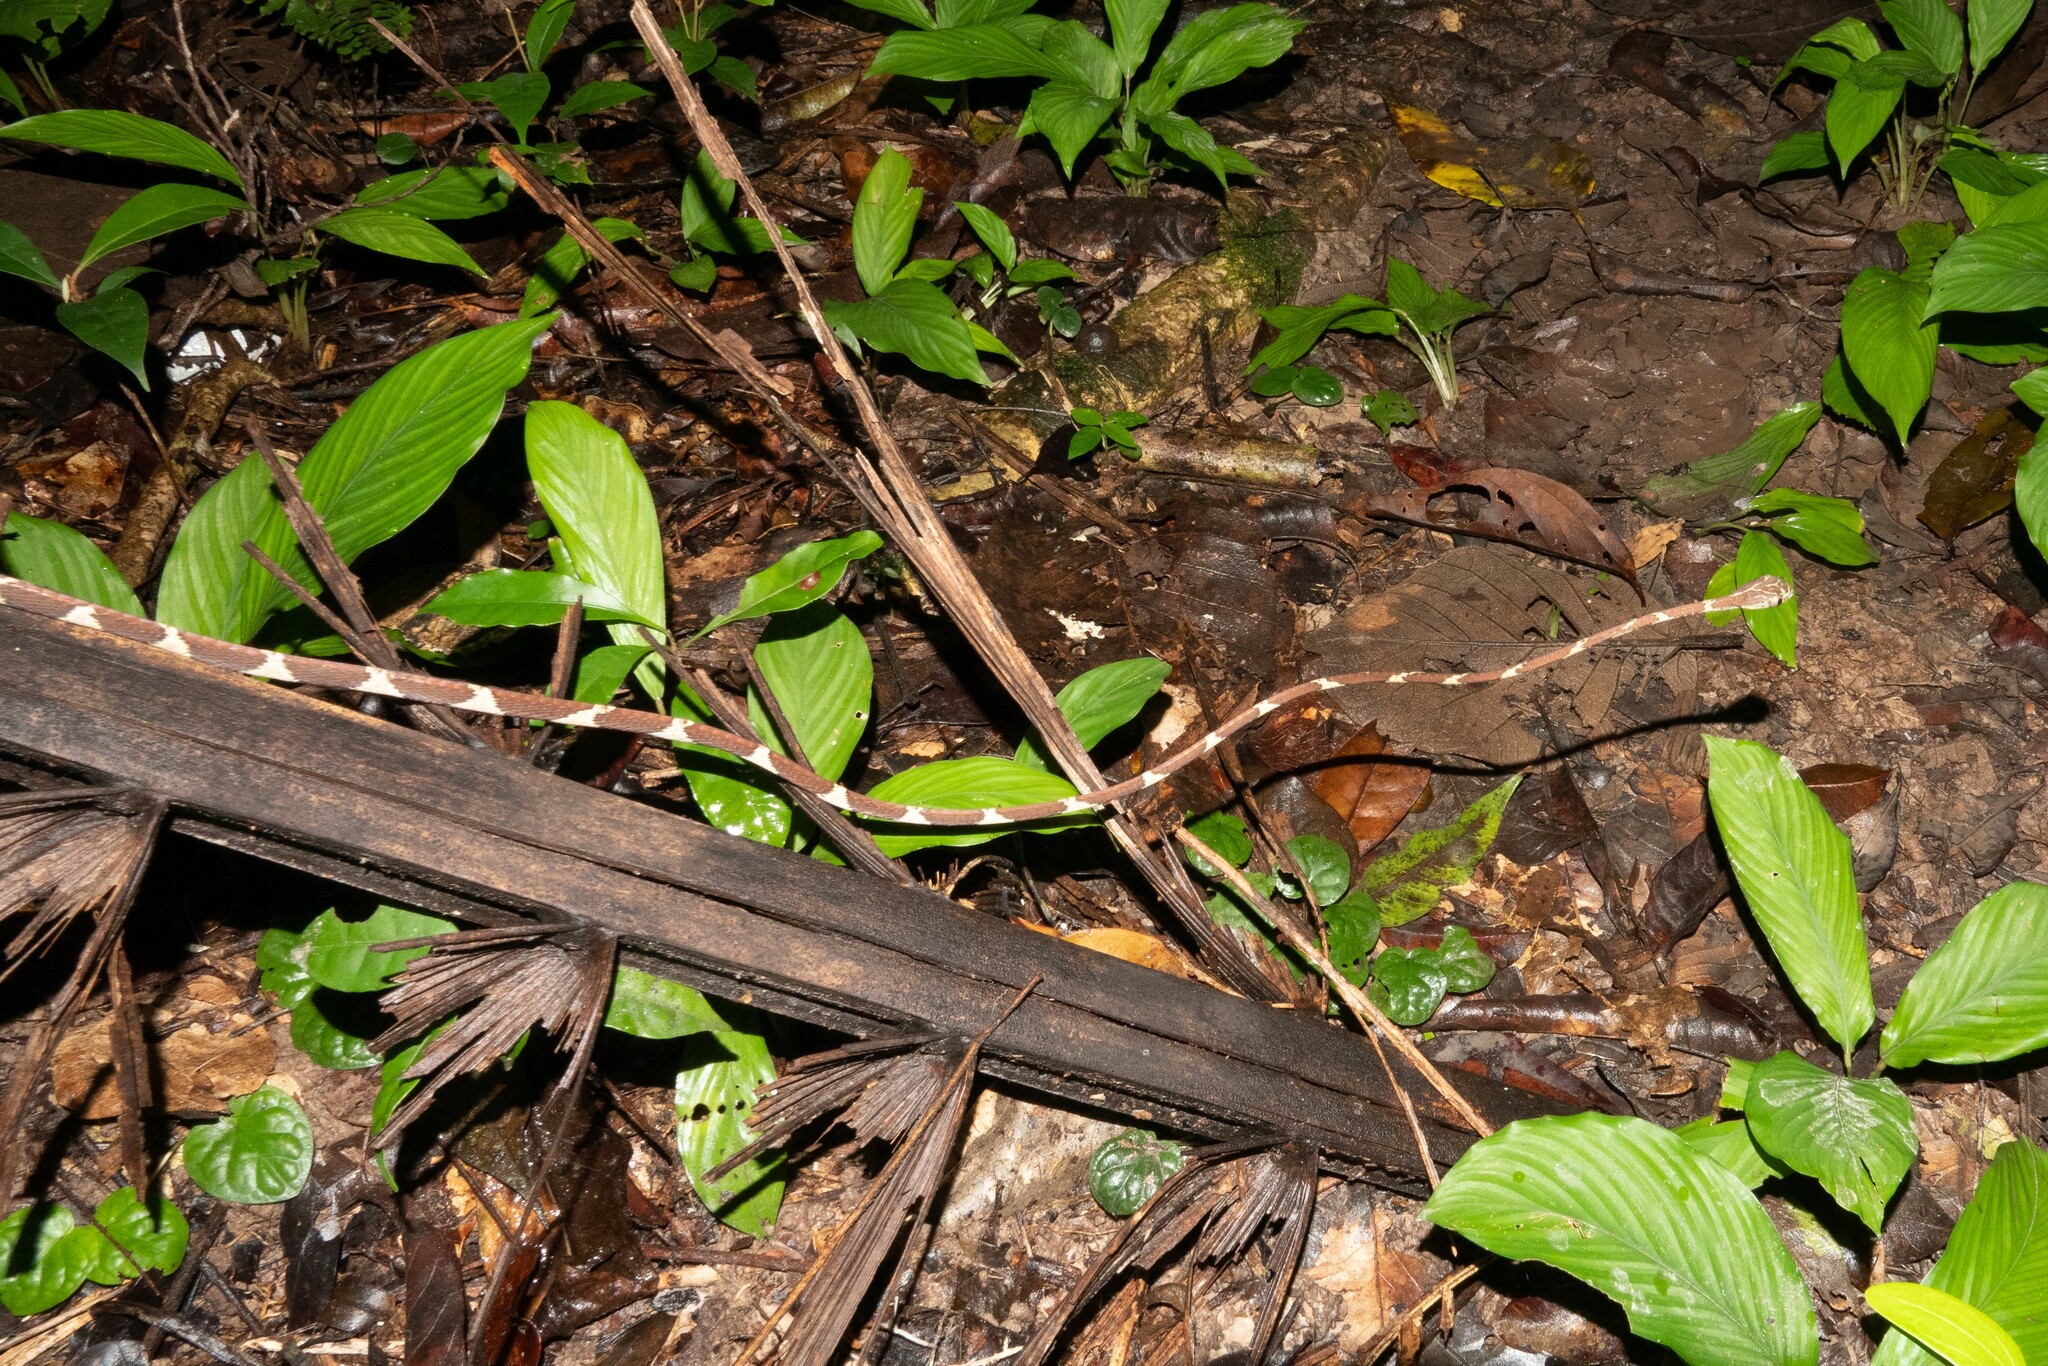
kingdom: Animalia
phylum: Chordata
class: Squamata
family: Colubridae
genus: Imantodes
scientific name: Imantodes cenchoa
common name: Blunthead tree snake
